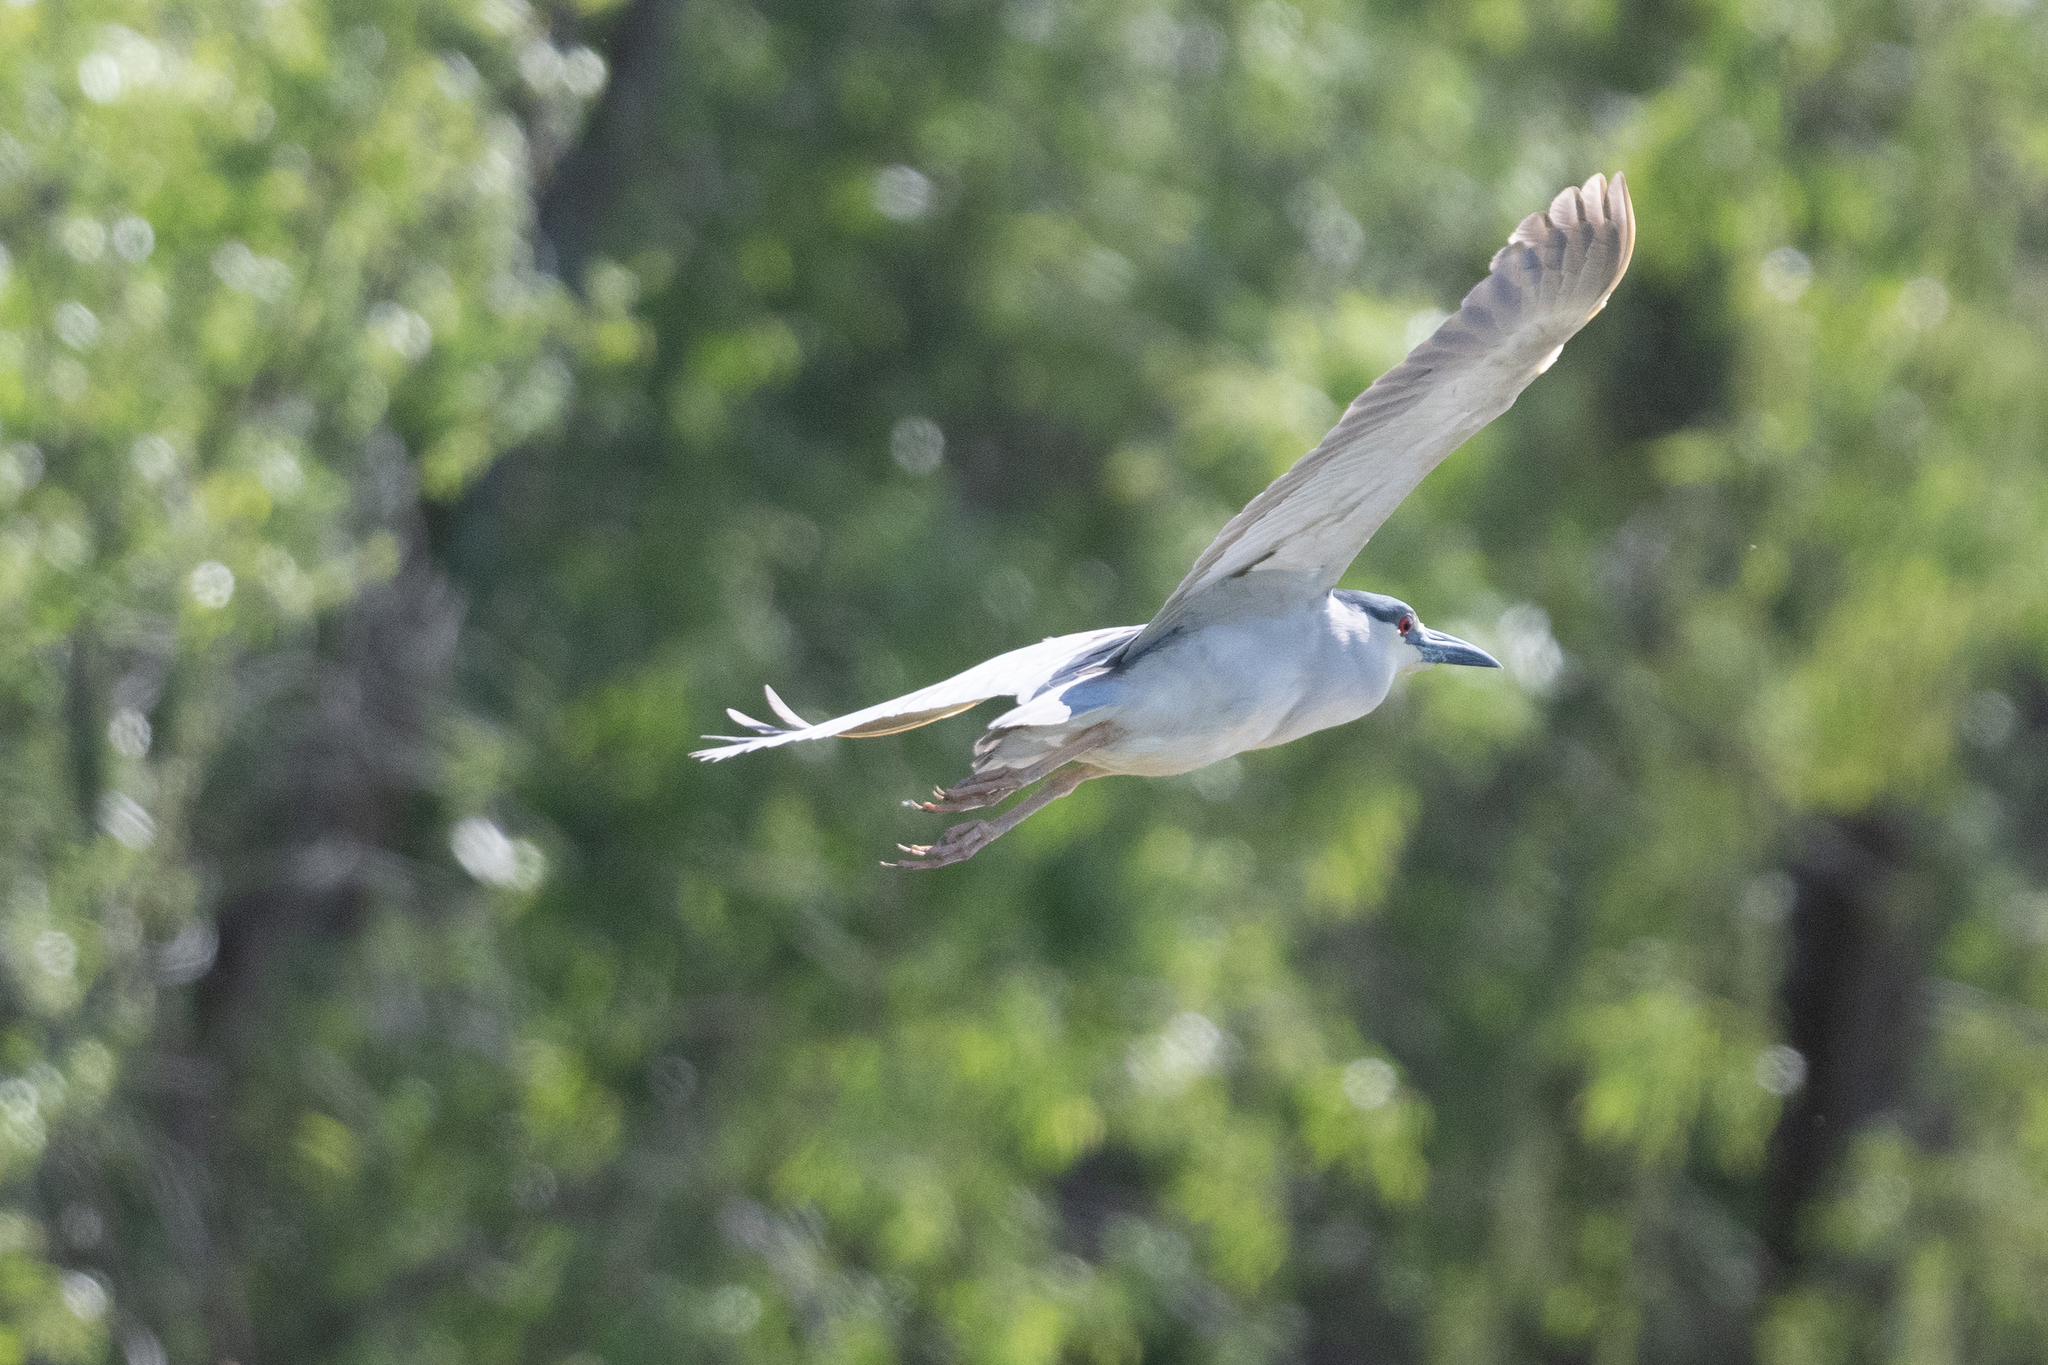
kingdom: Animalia
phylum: Chordata
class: Aves
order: Pelecaniformes
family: Ardeidae
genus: Nycticorax
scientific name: Nycticorax nycticorax
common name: Black-crowned night heron
